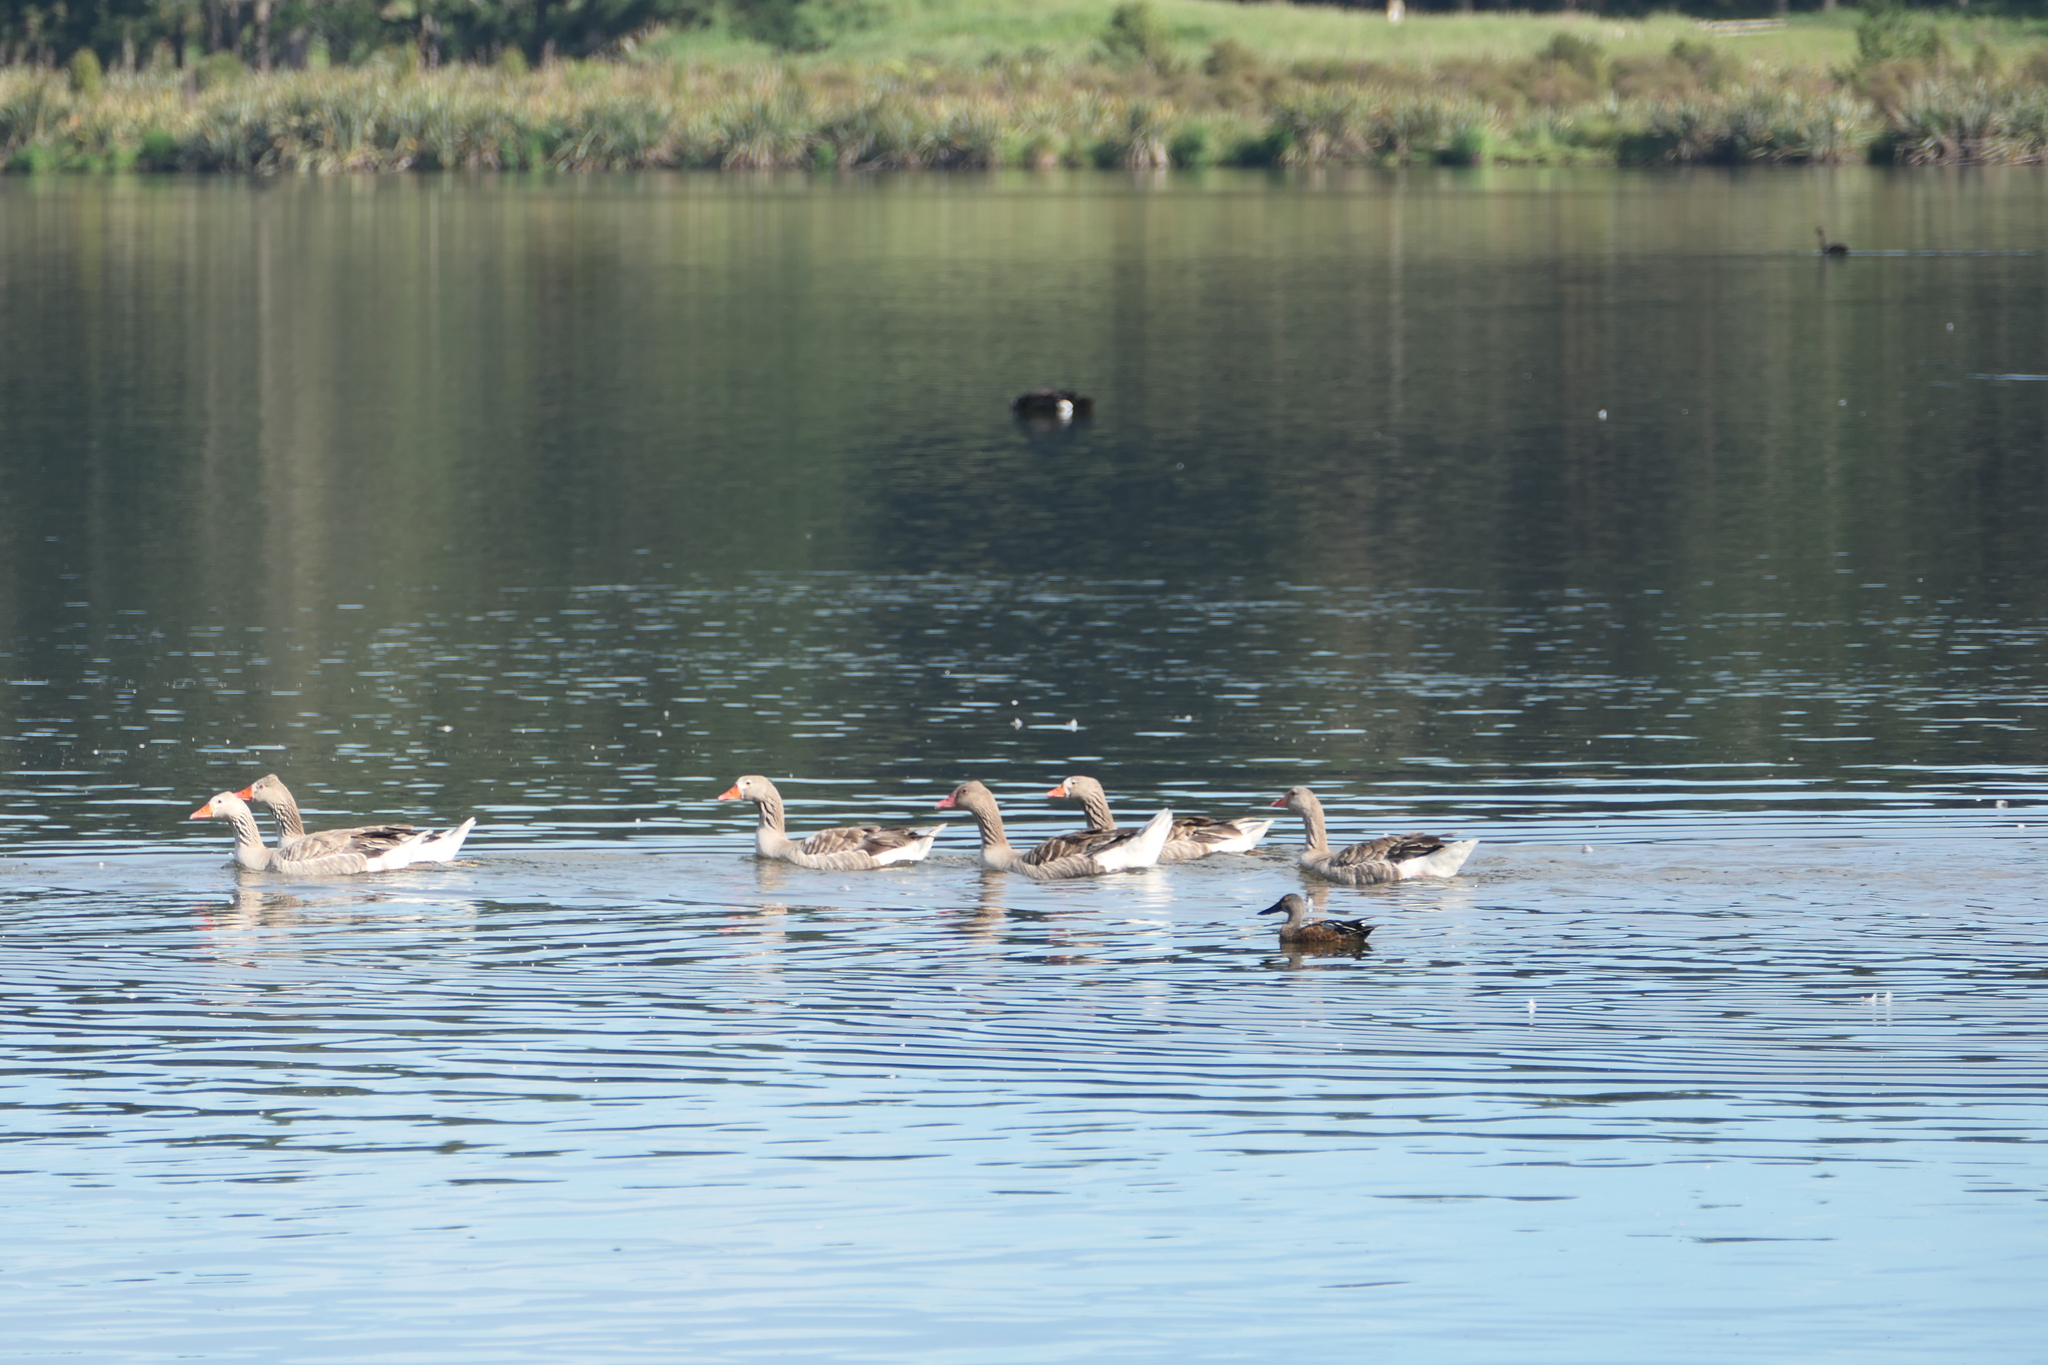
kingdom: Animalia
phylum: Chordata
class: Aves
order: Anseriformes
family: Anatidae
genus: Anser
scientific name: Anser anser
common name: Greylag goose
